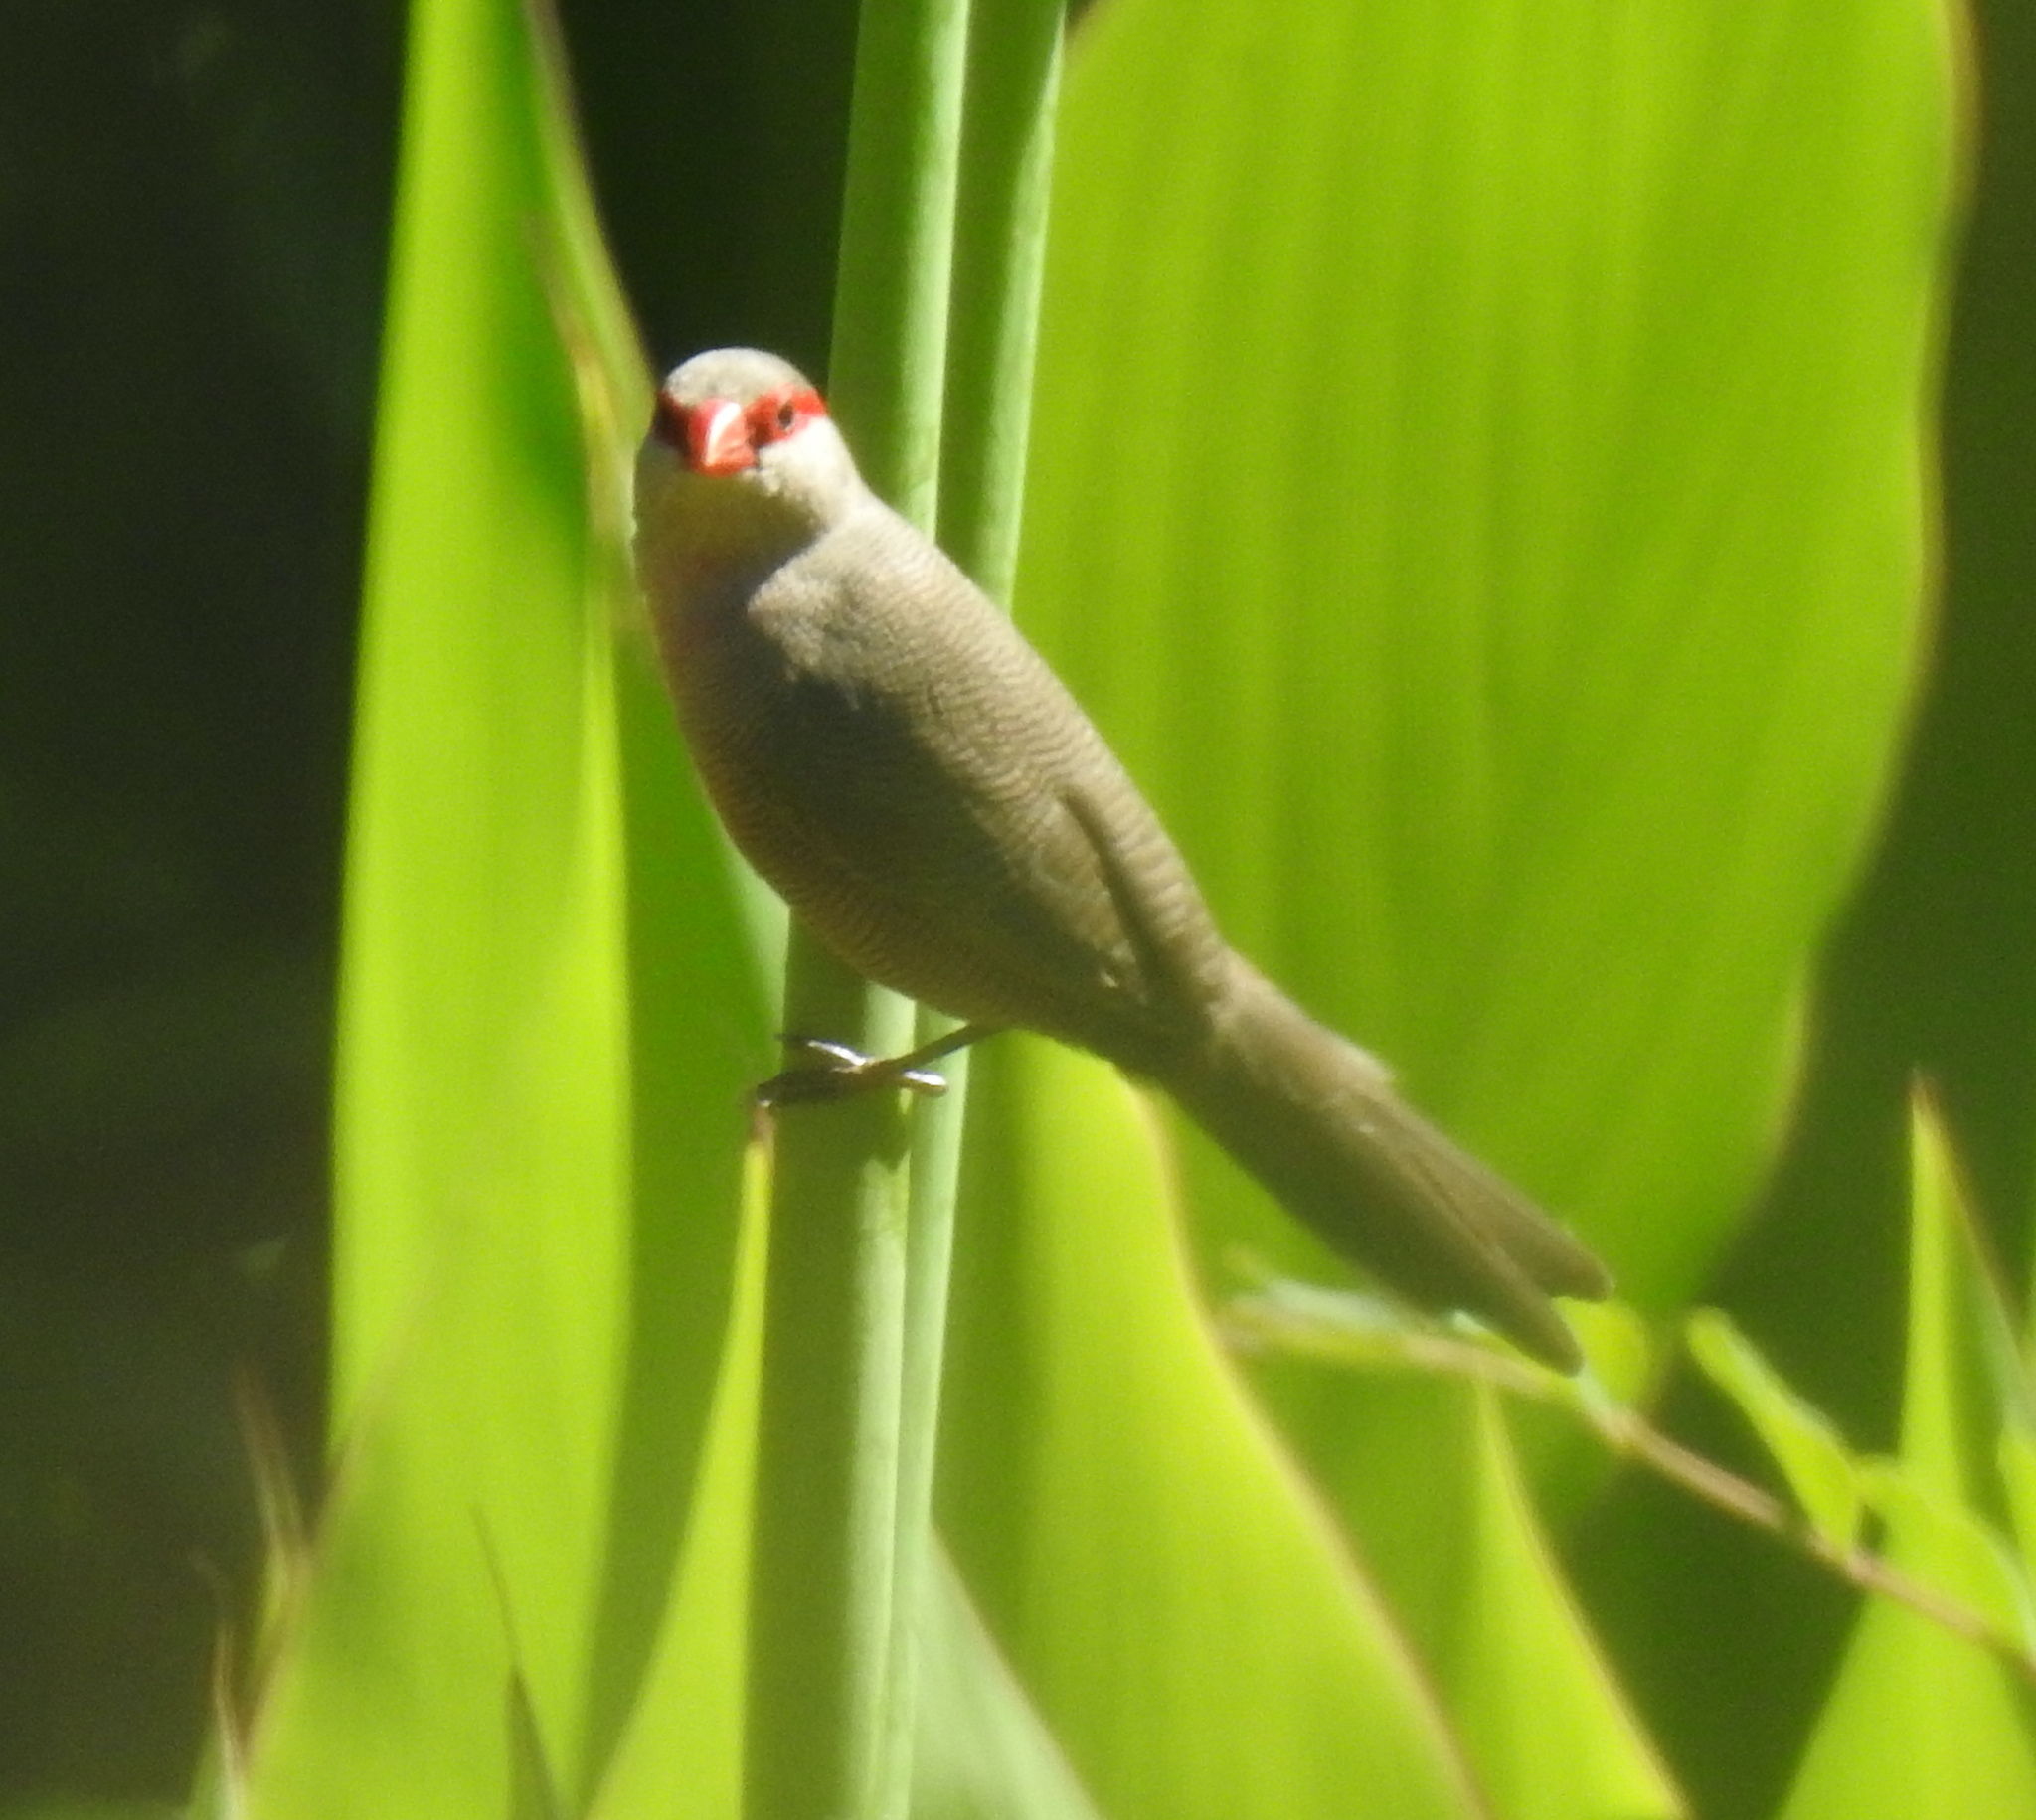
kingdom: Animalia
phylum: Chordata
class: Aves
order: Passeriformes
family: Estrildidae
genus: Estrilda
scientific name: Estrilda astrild
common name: Common waxbill
